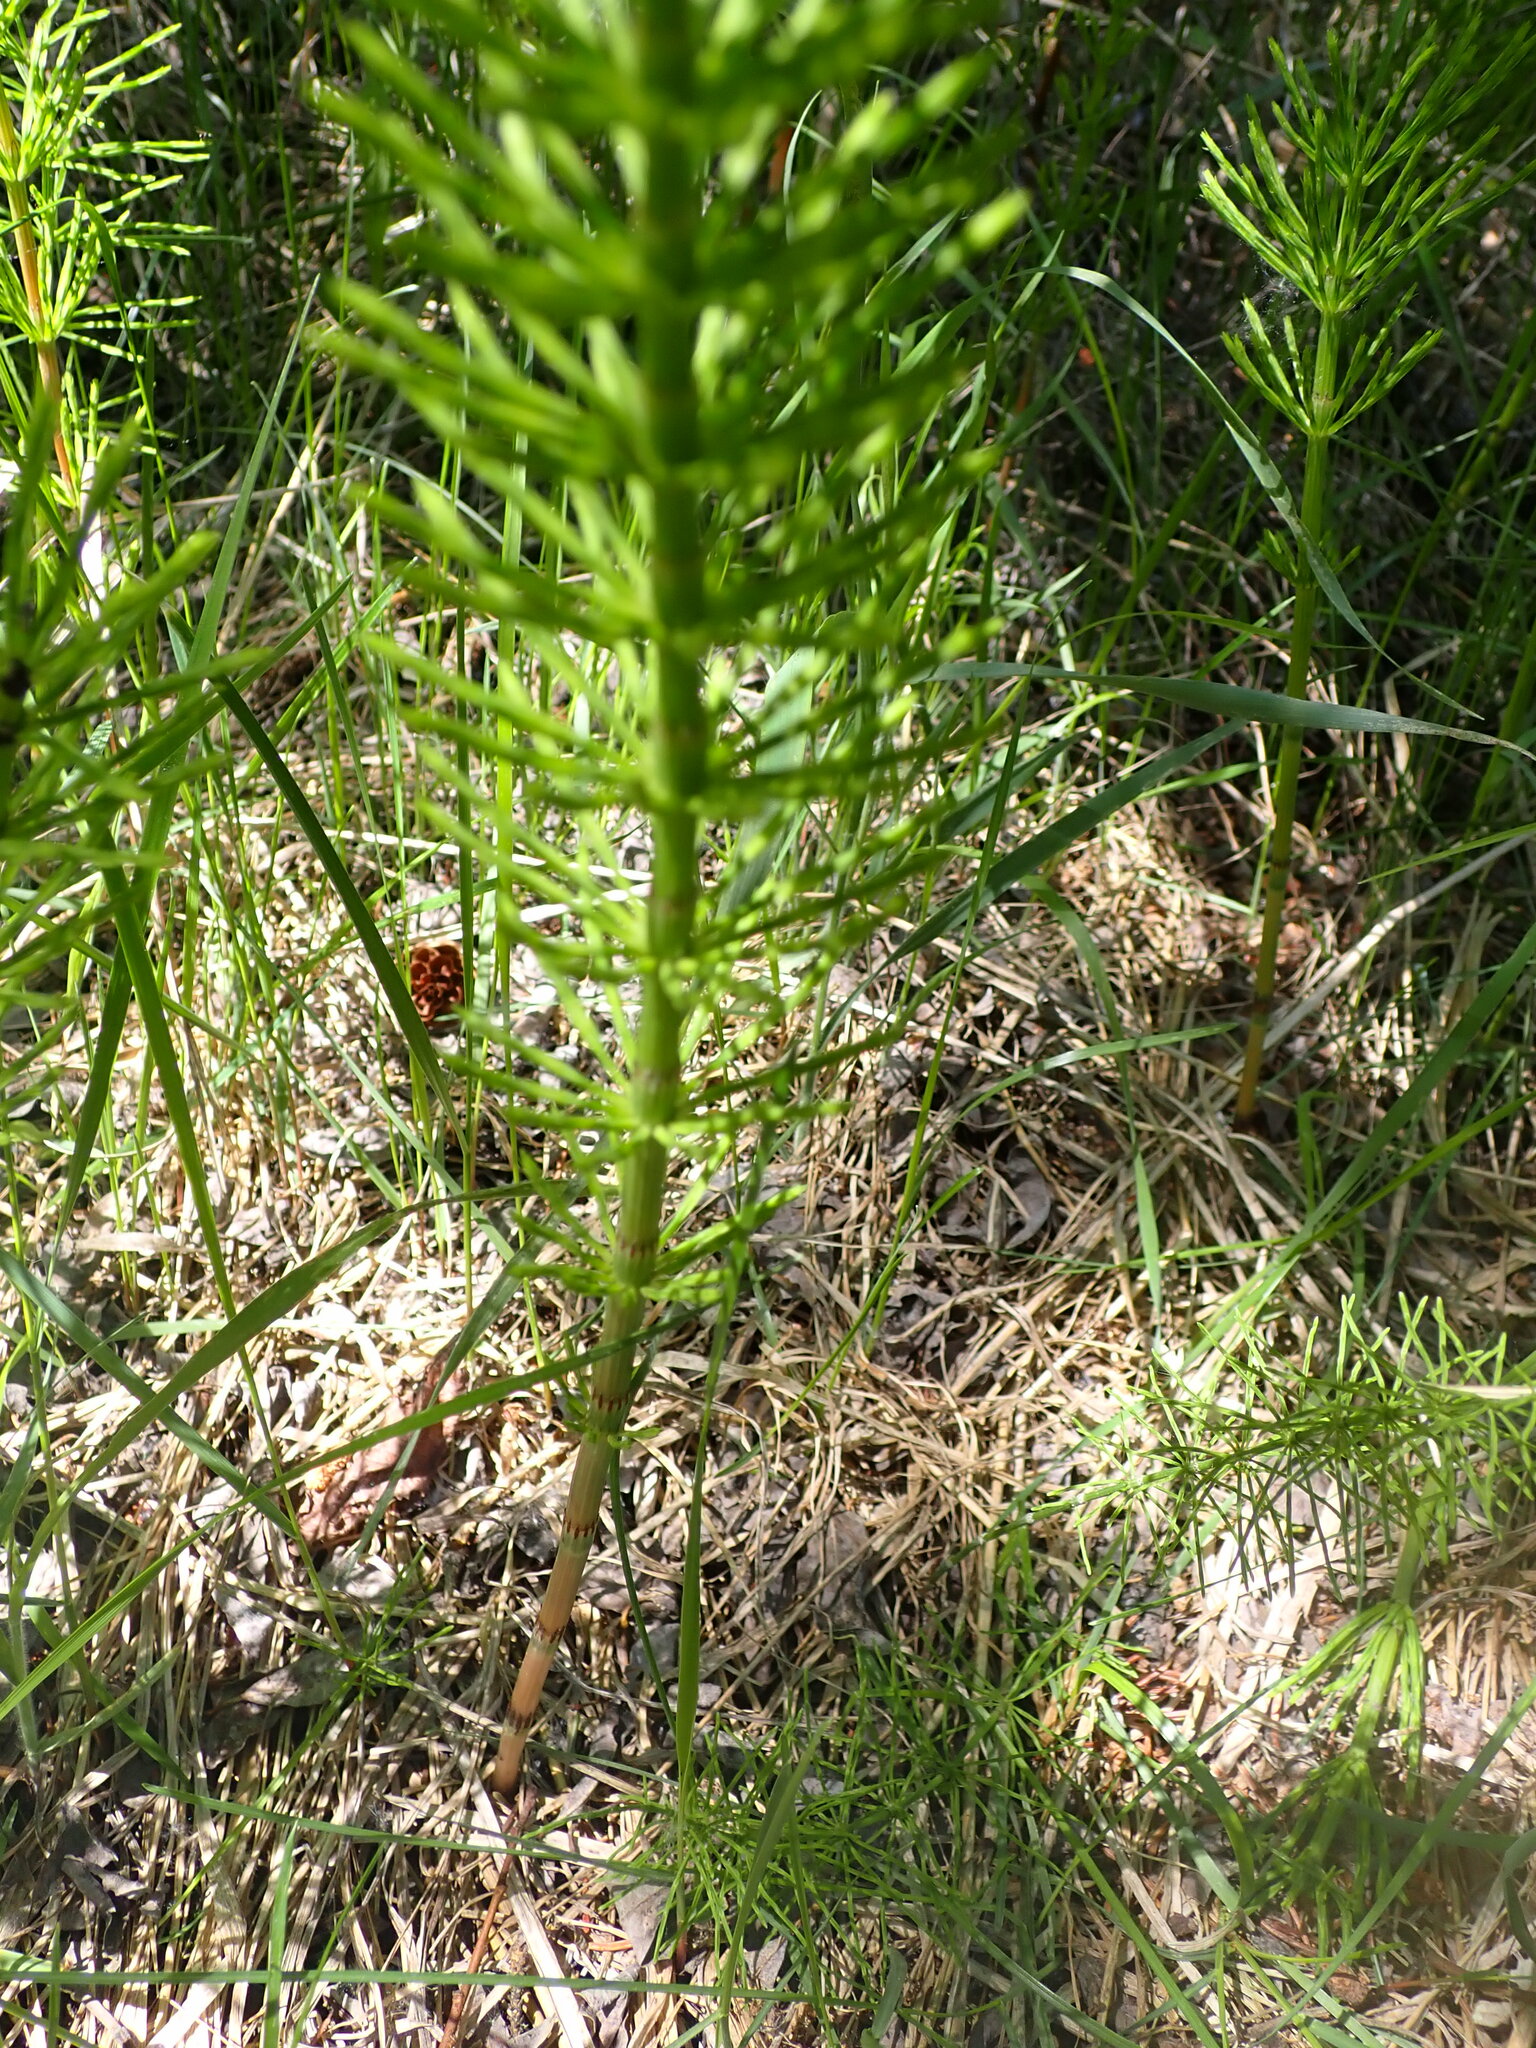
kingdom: Plantae
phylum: Tracheophyta
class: Polypodiopsida
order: Equisetales
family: Equisetaceae
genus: Equisetum
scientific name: Equisetum arvense
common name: Field horsetail
